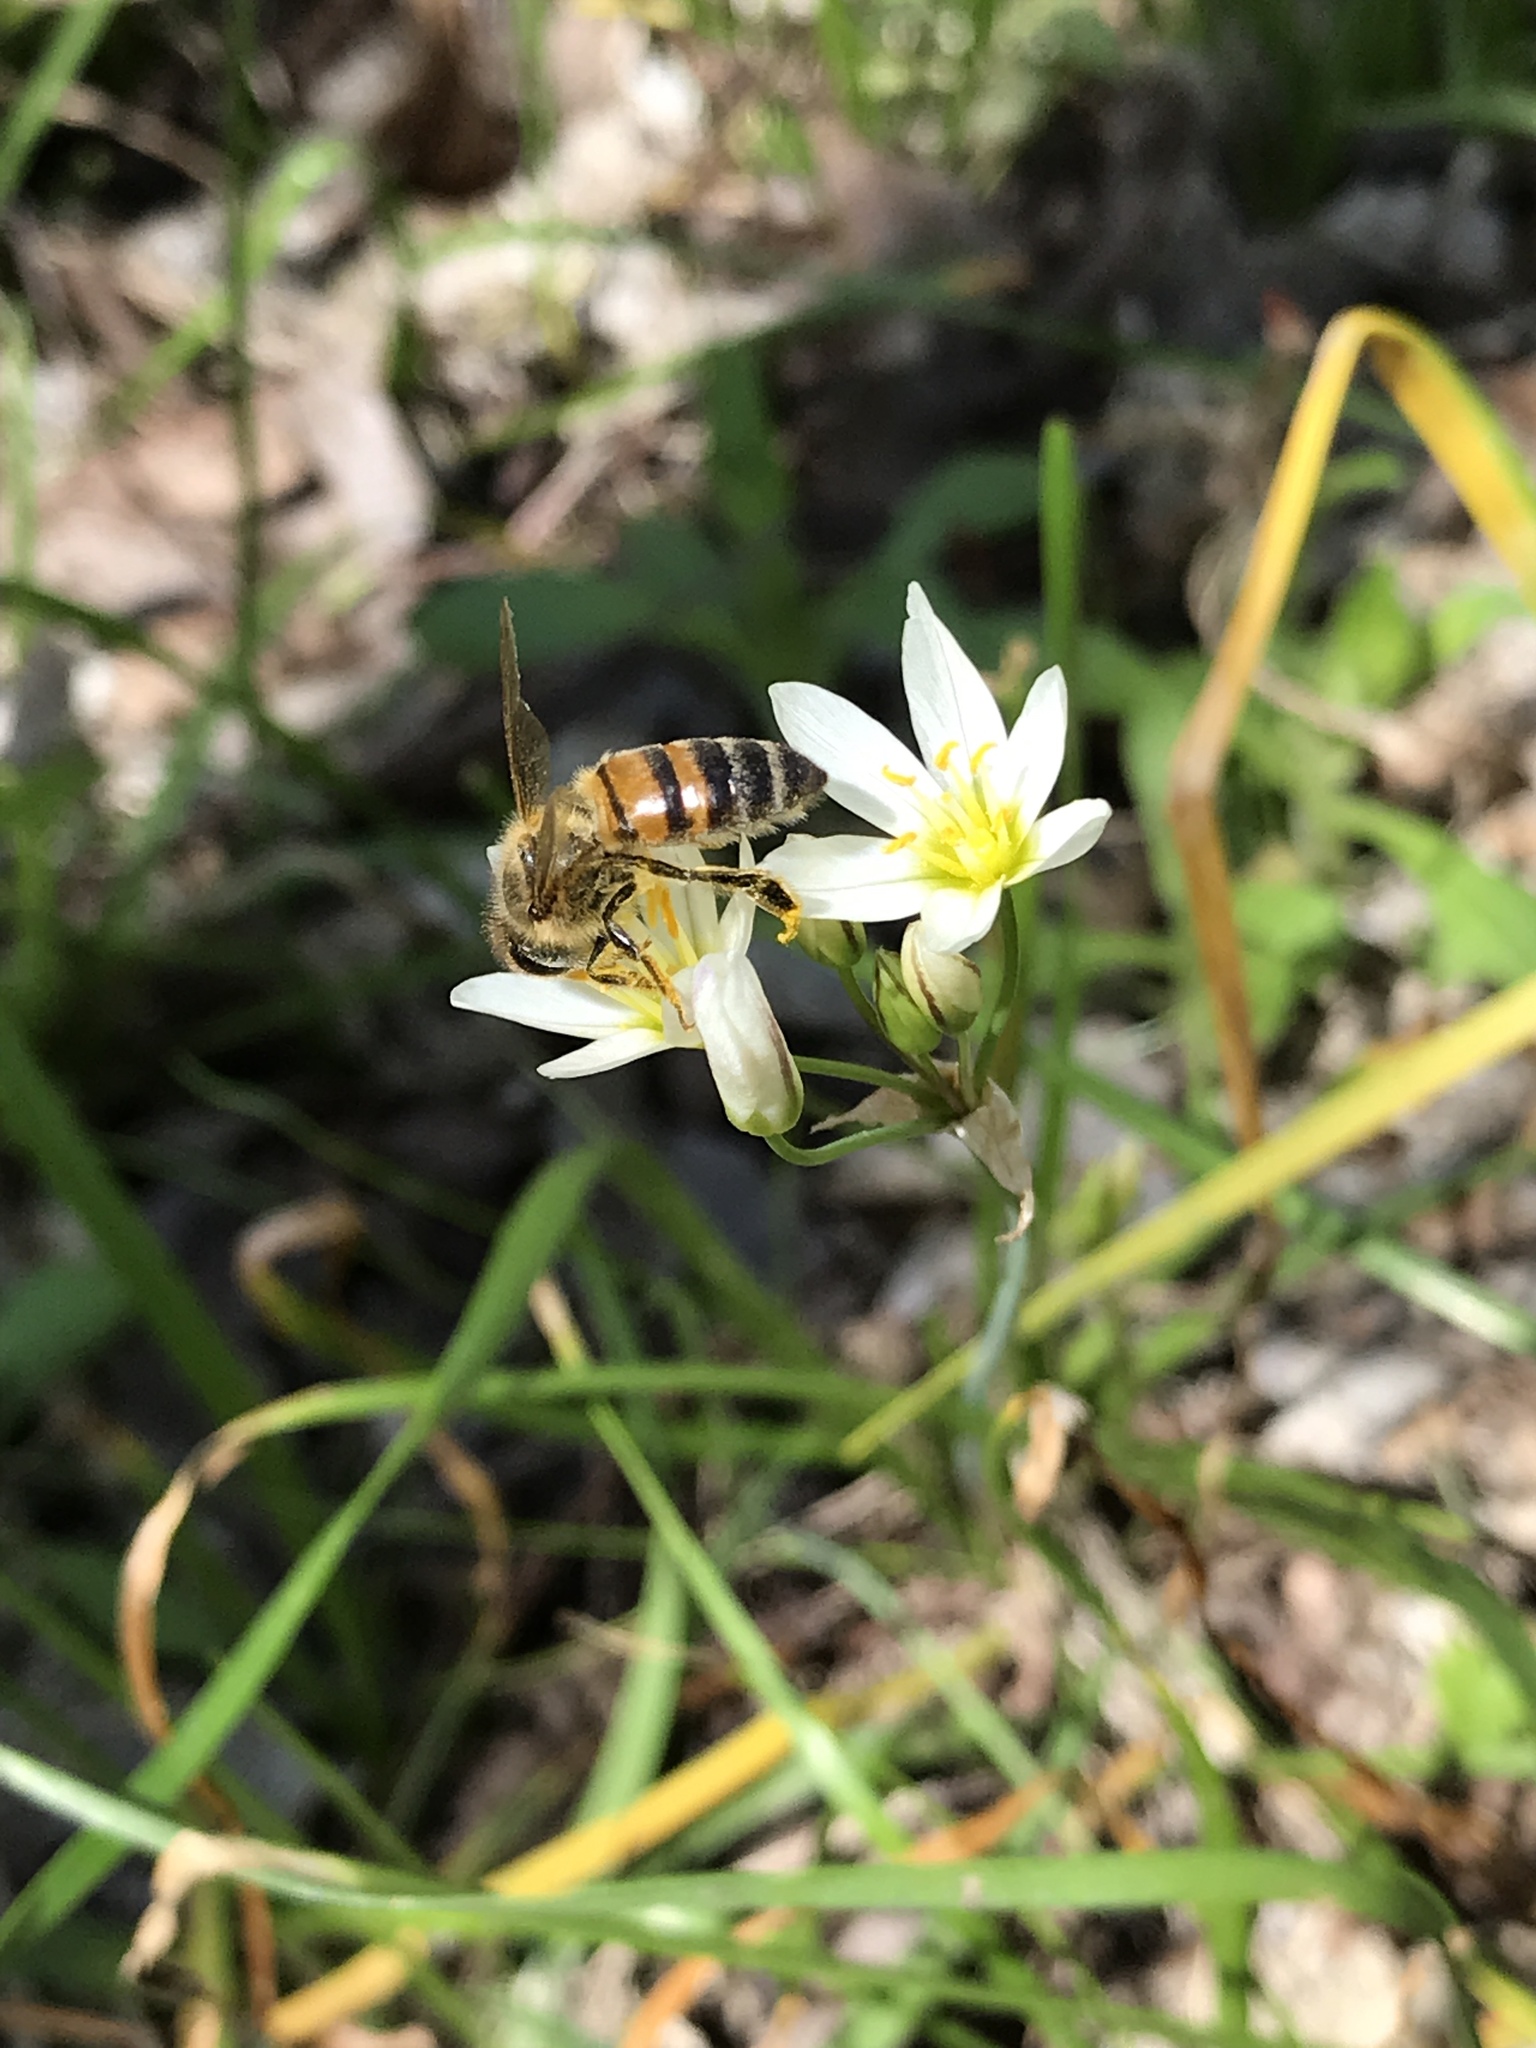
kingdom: Plantae
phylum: Tracheophyta
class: Liliopsida
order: Asparagales
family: Amaryllidaceae
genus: Nothoscordum
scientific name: Nothoscordum bivalve
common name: Crow-poison
